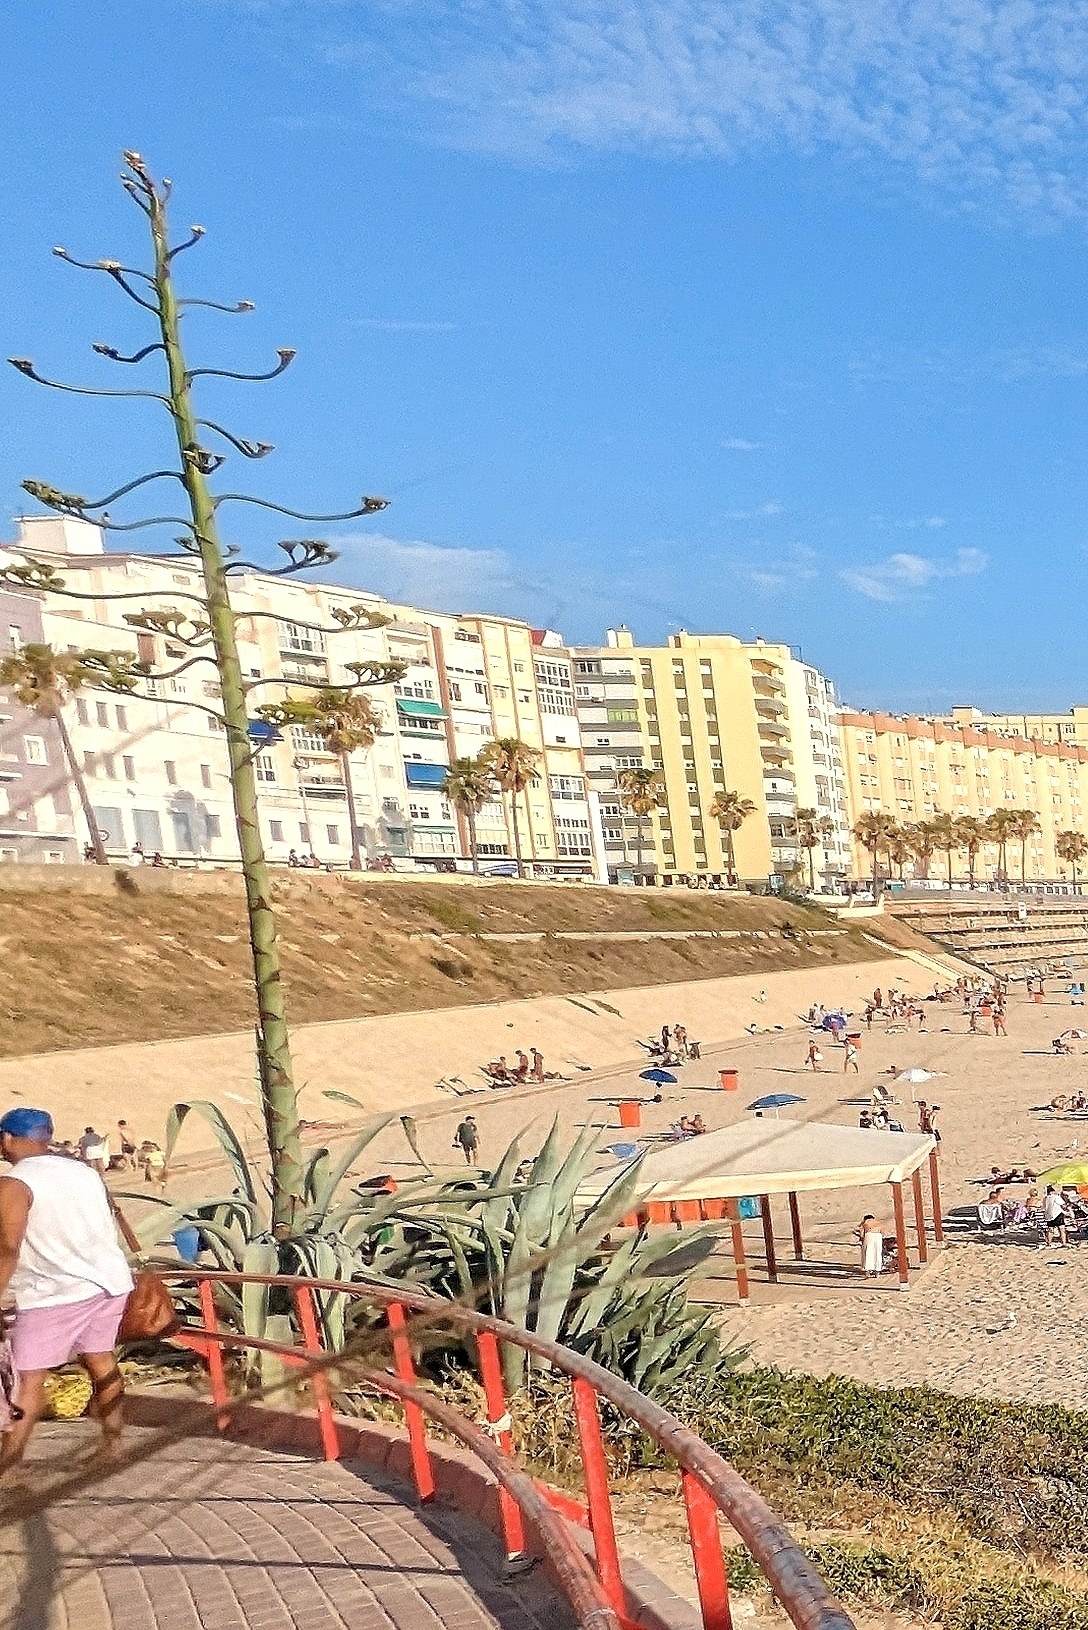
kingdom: Plantae
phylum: Tracheophyta
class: Liliopsida
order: Asparagales
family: Asparagaceae
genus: Agave
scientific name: Agave americana
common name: Centuryplant
